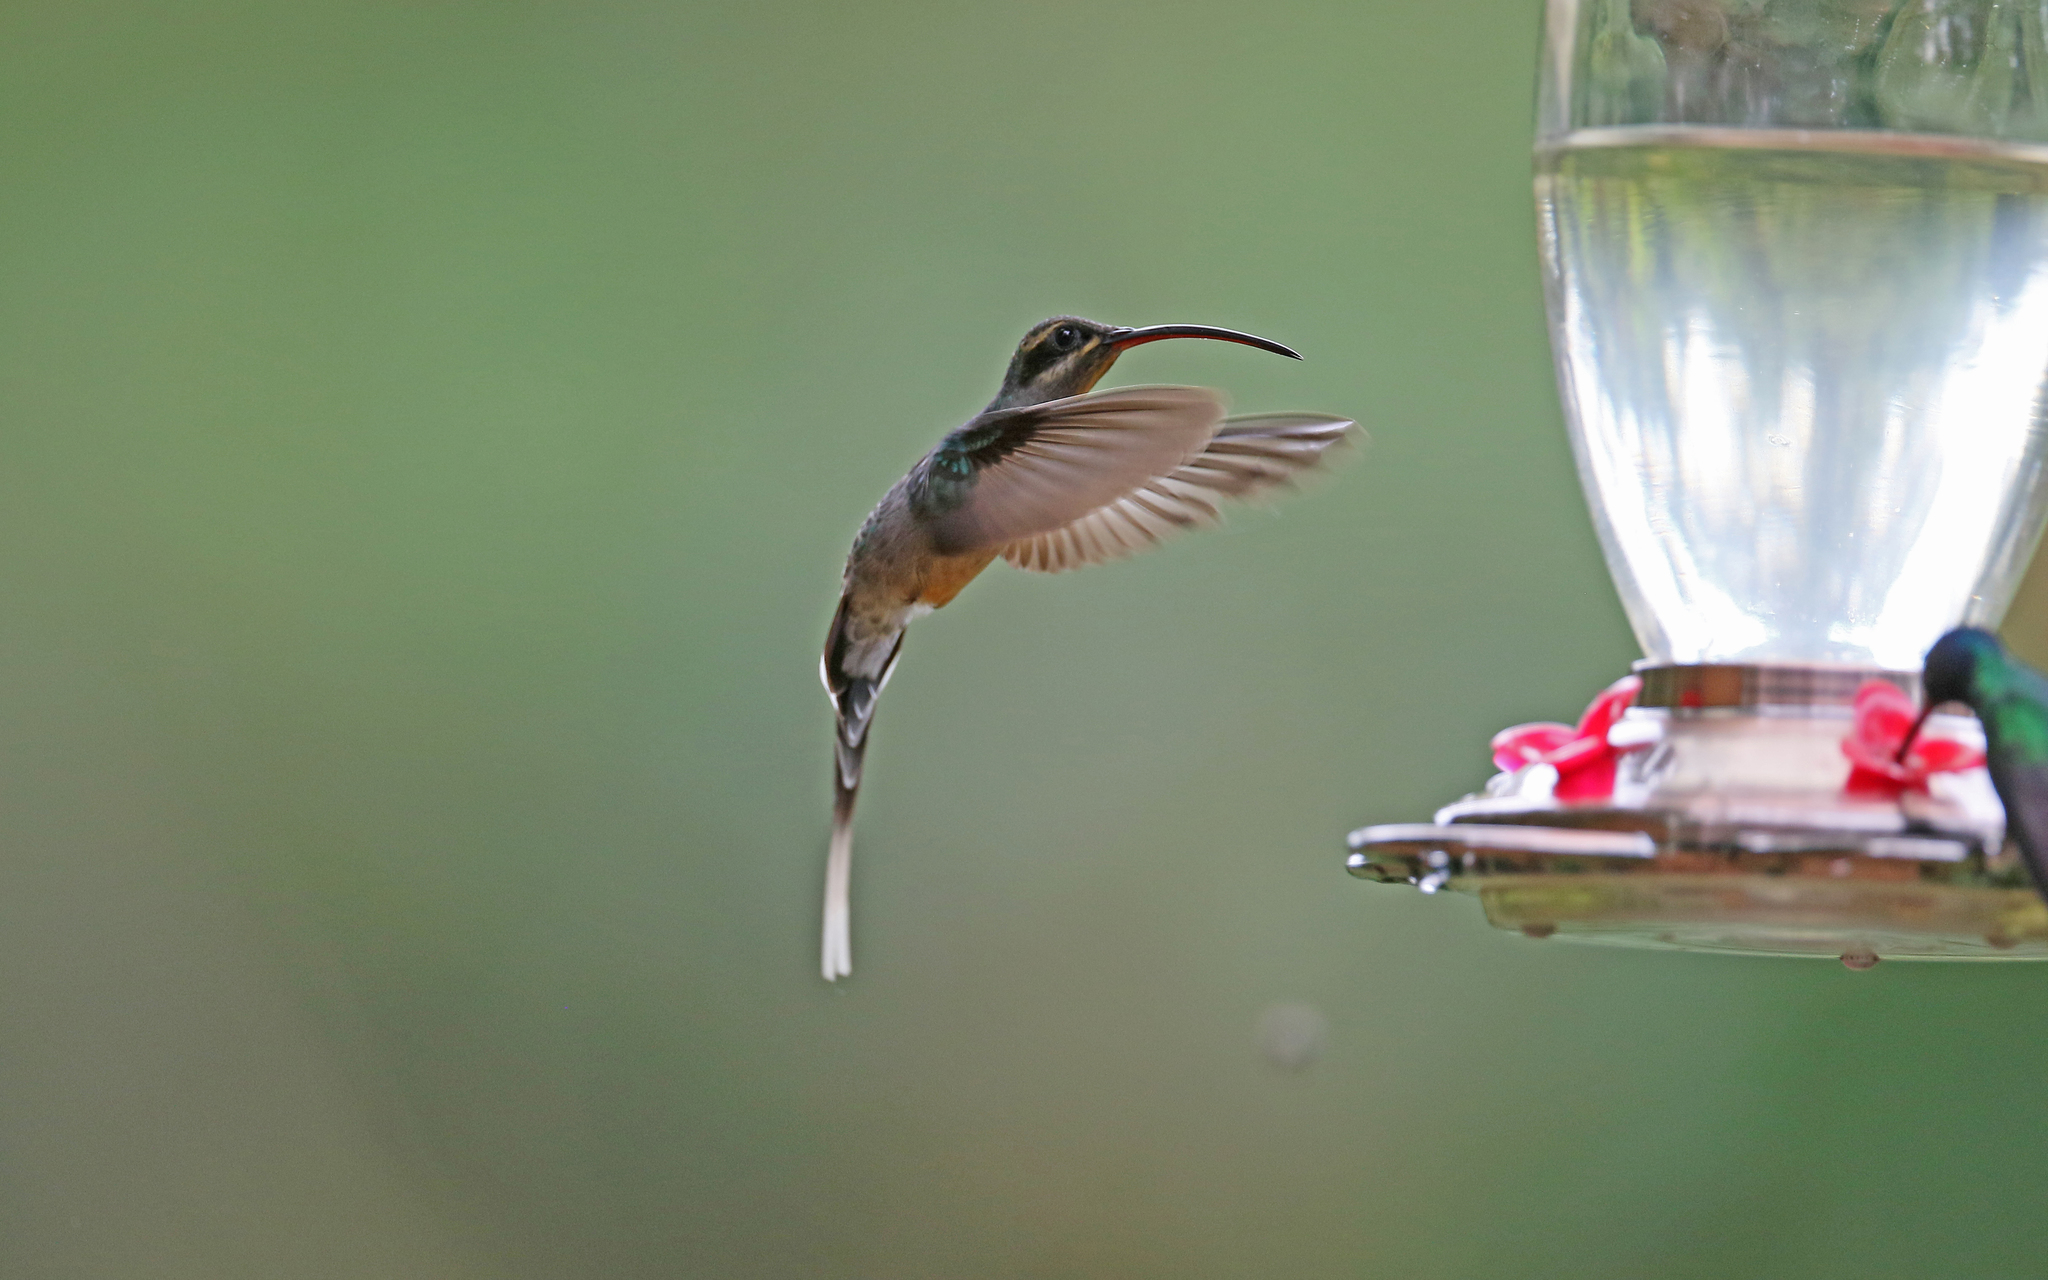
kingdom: Animalia
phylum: Chordata
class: Aves
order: Apodiformes
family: Trochilidae
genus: Phaethornis
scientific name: Phaethornis guy
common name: Green hermit
